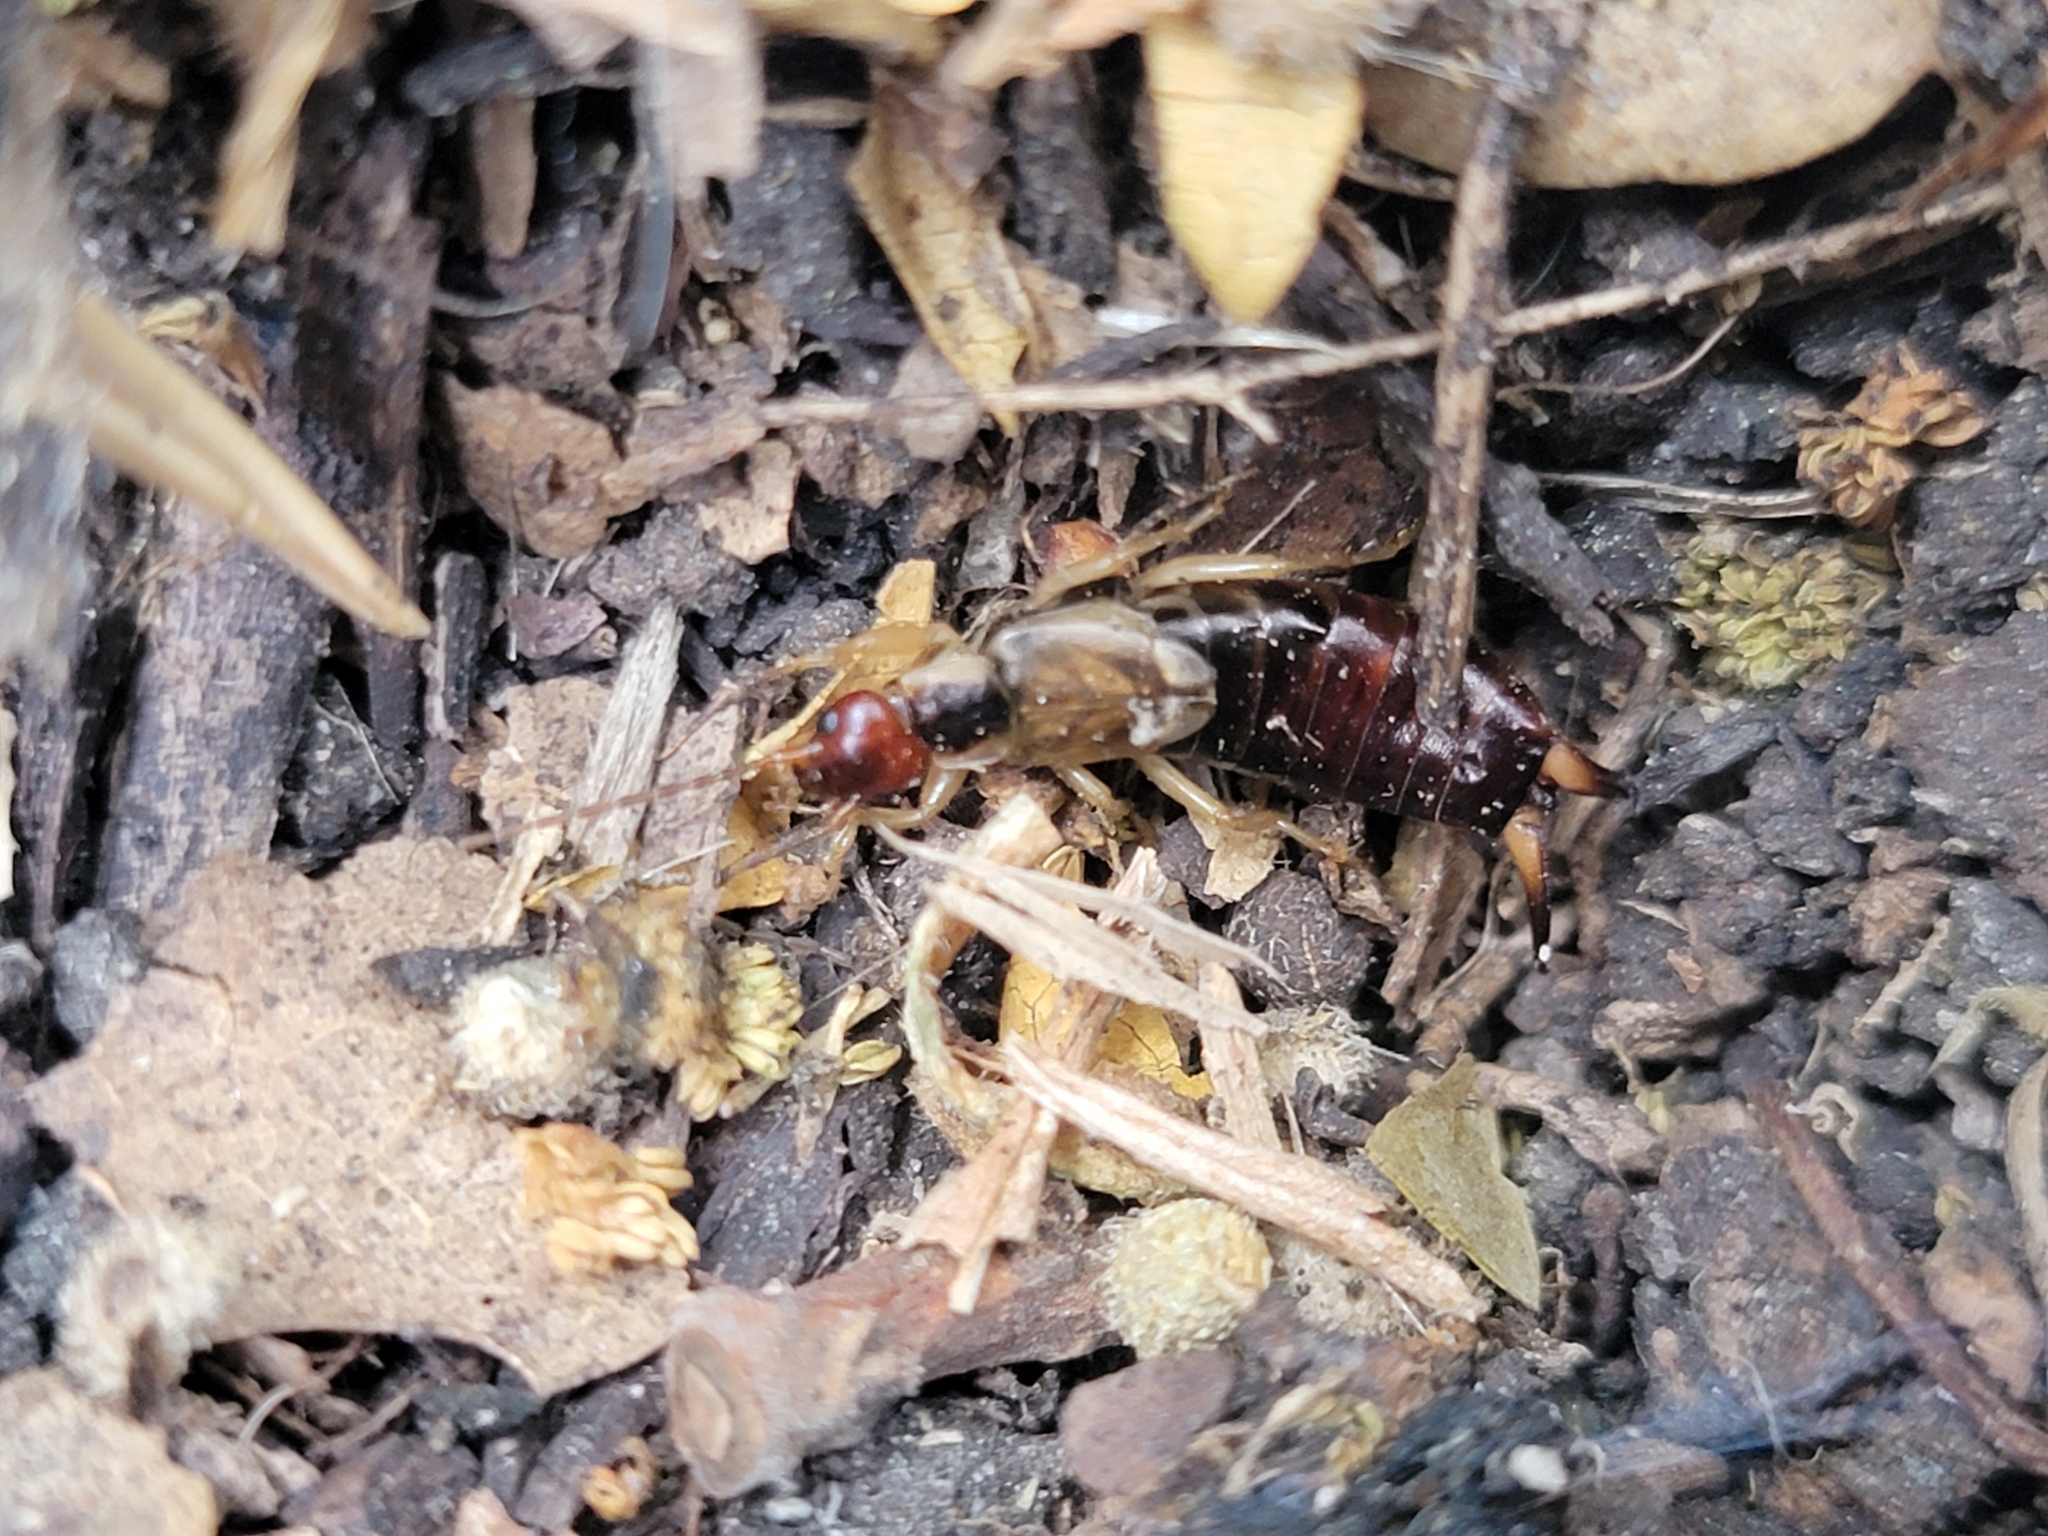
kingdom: Animalia
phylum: Arthropoda
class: Insecta
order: Dermaptera
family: Forficulidae
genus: Forficula
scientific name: Forficula dentata
